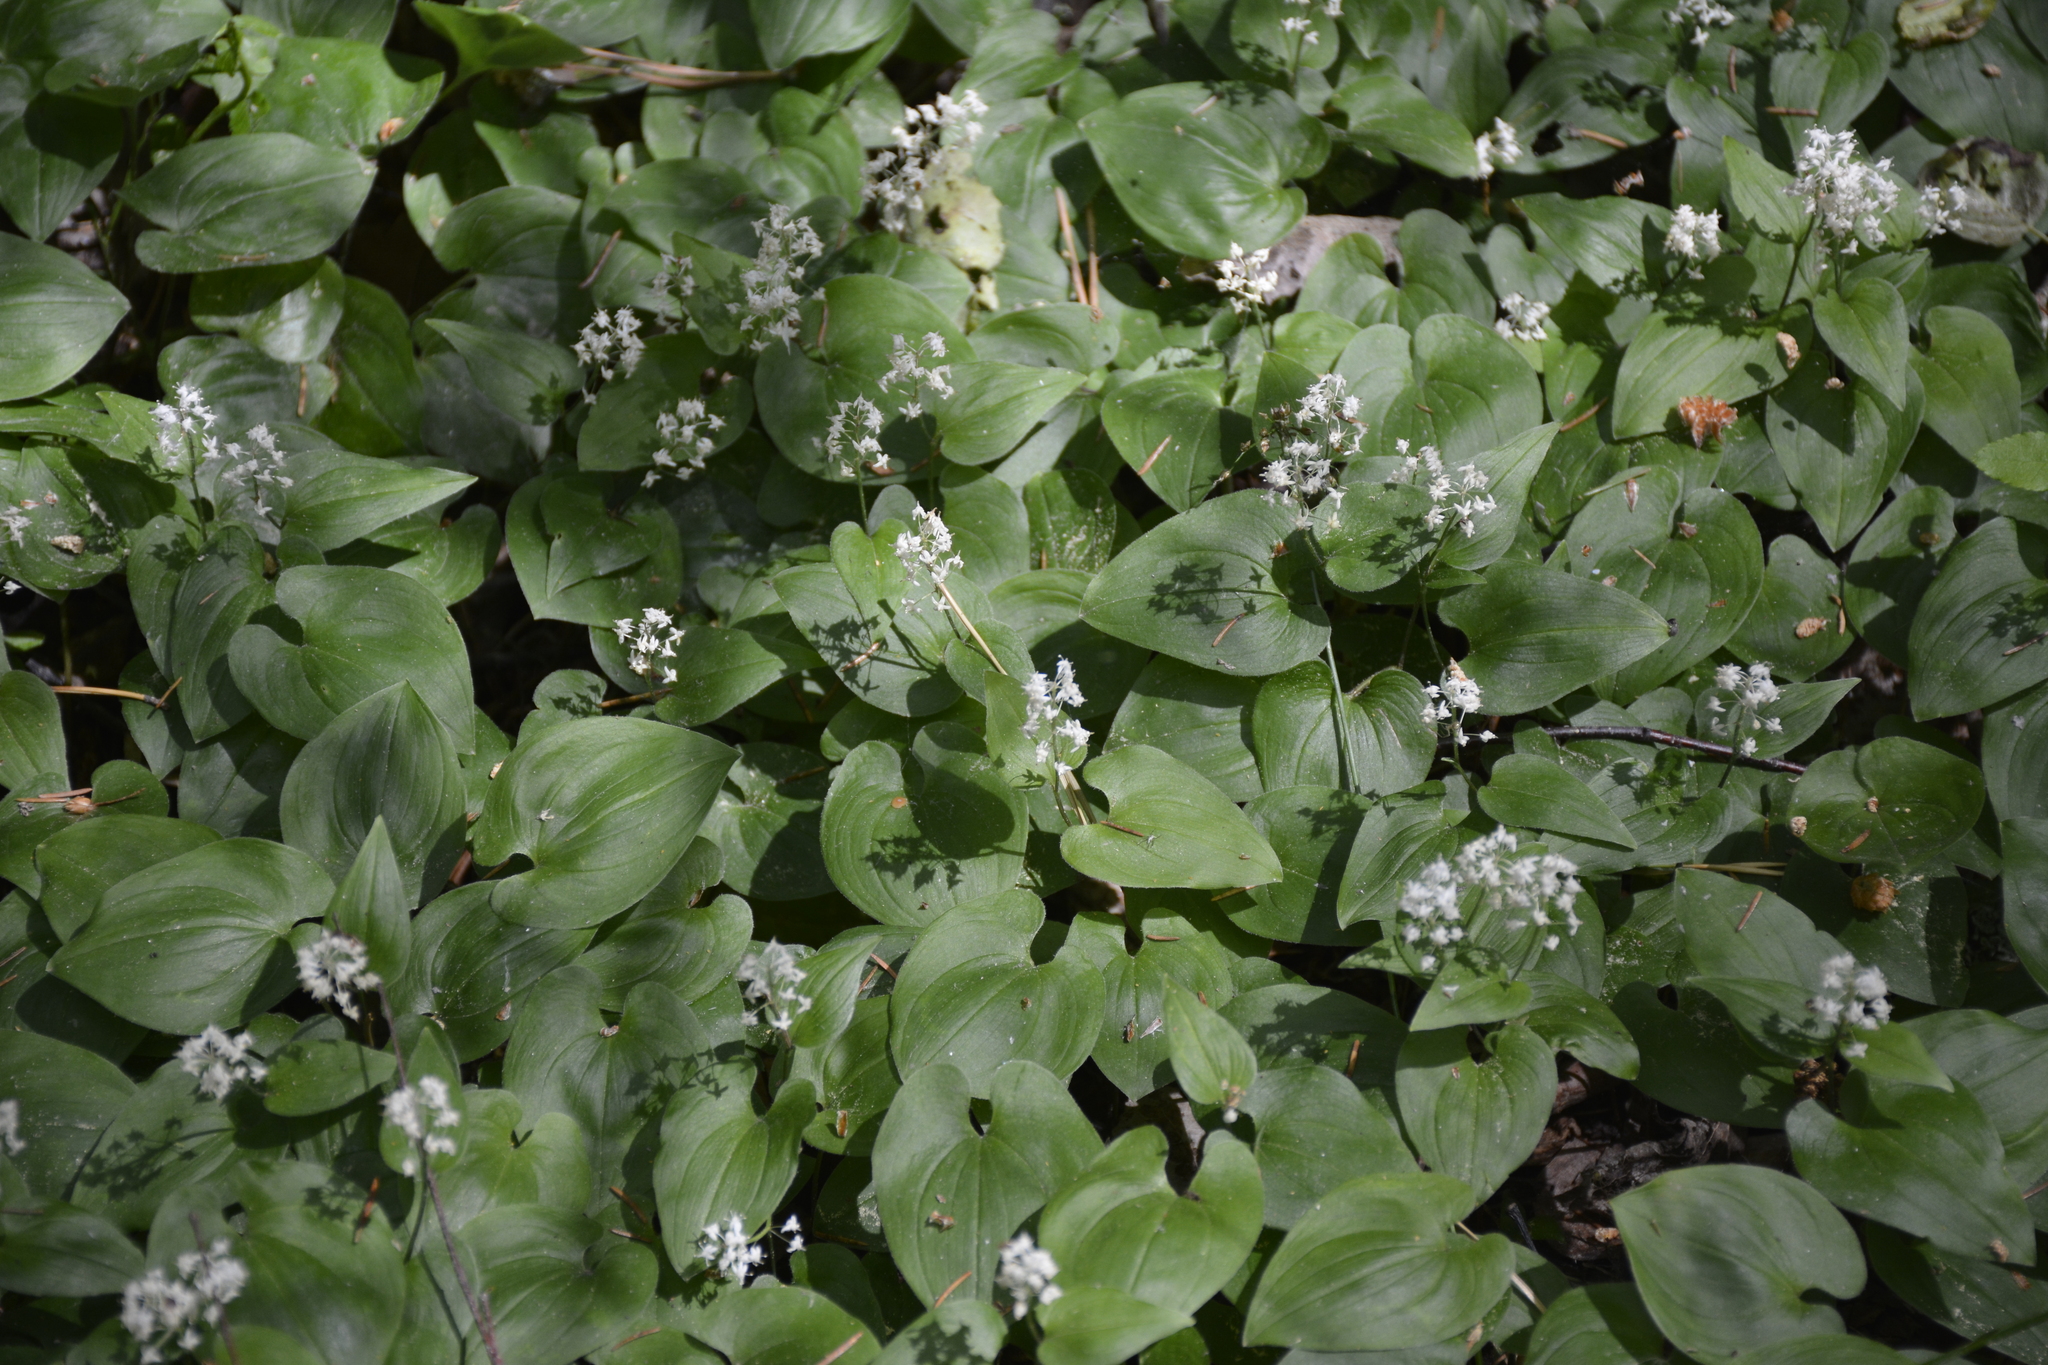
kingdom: Plantae
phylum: Tracheophyta
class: Liliopsida
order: Asparagales
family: Asparagaceae
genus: Maianthemum
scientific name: Maianthemum bifolium
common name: May lily
